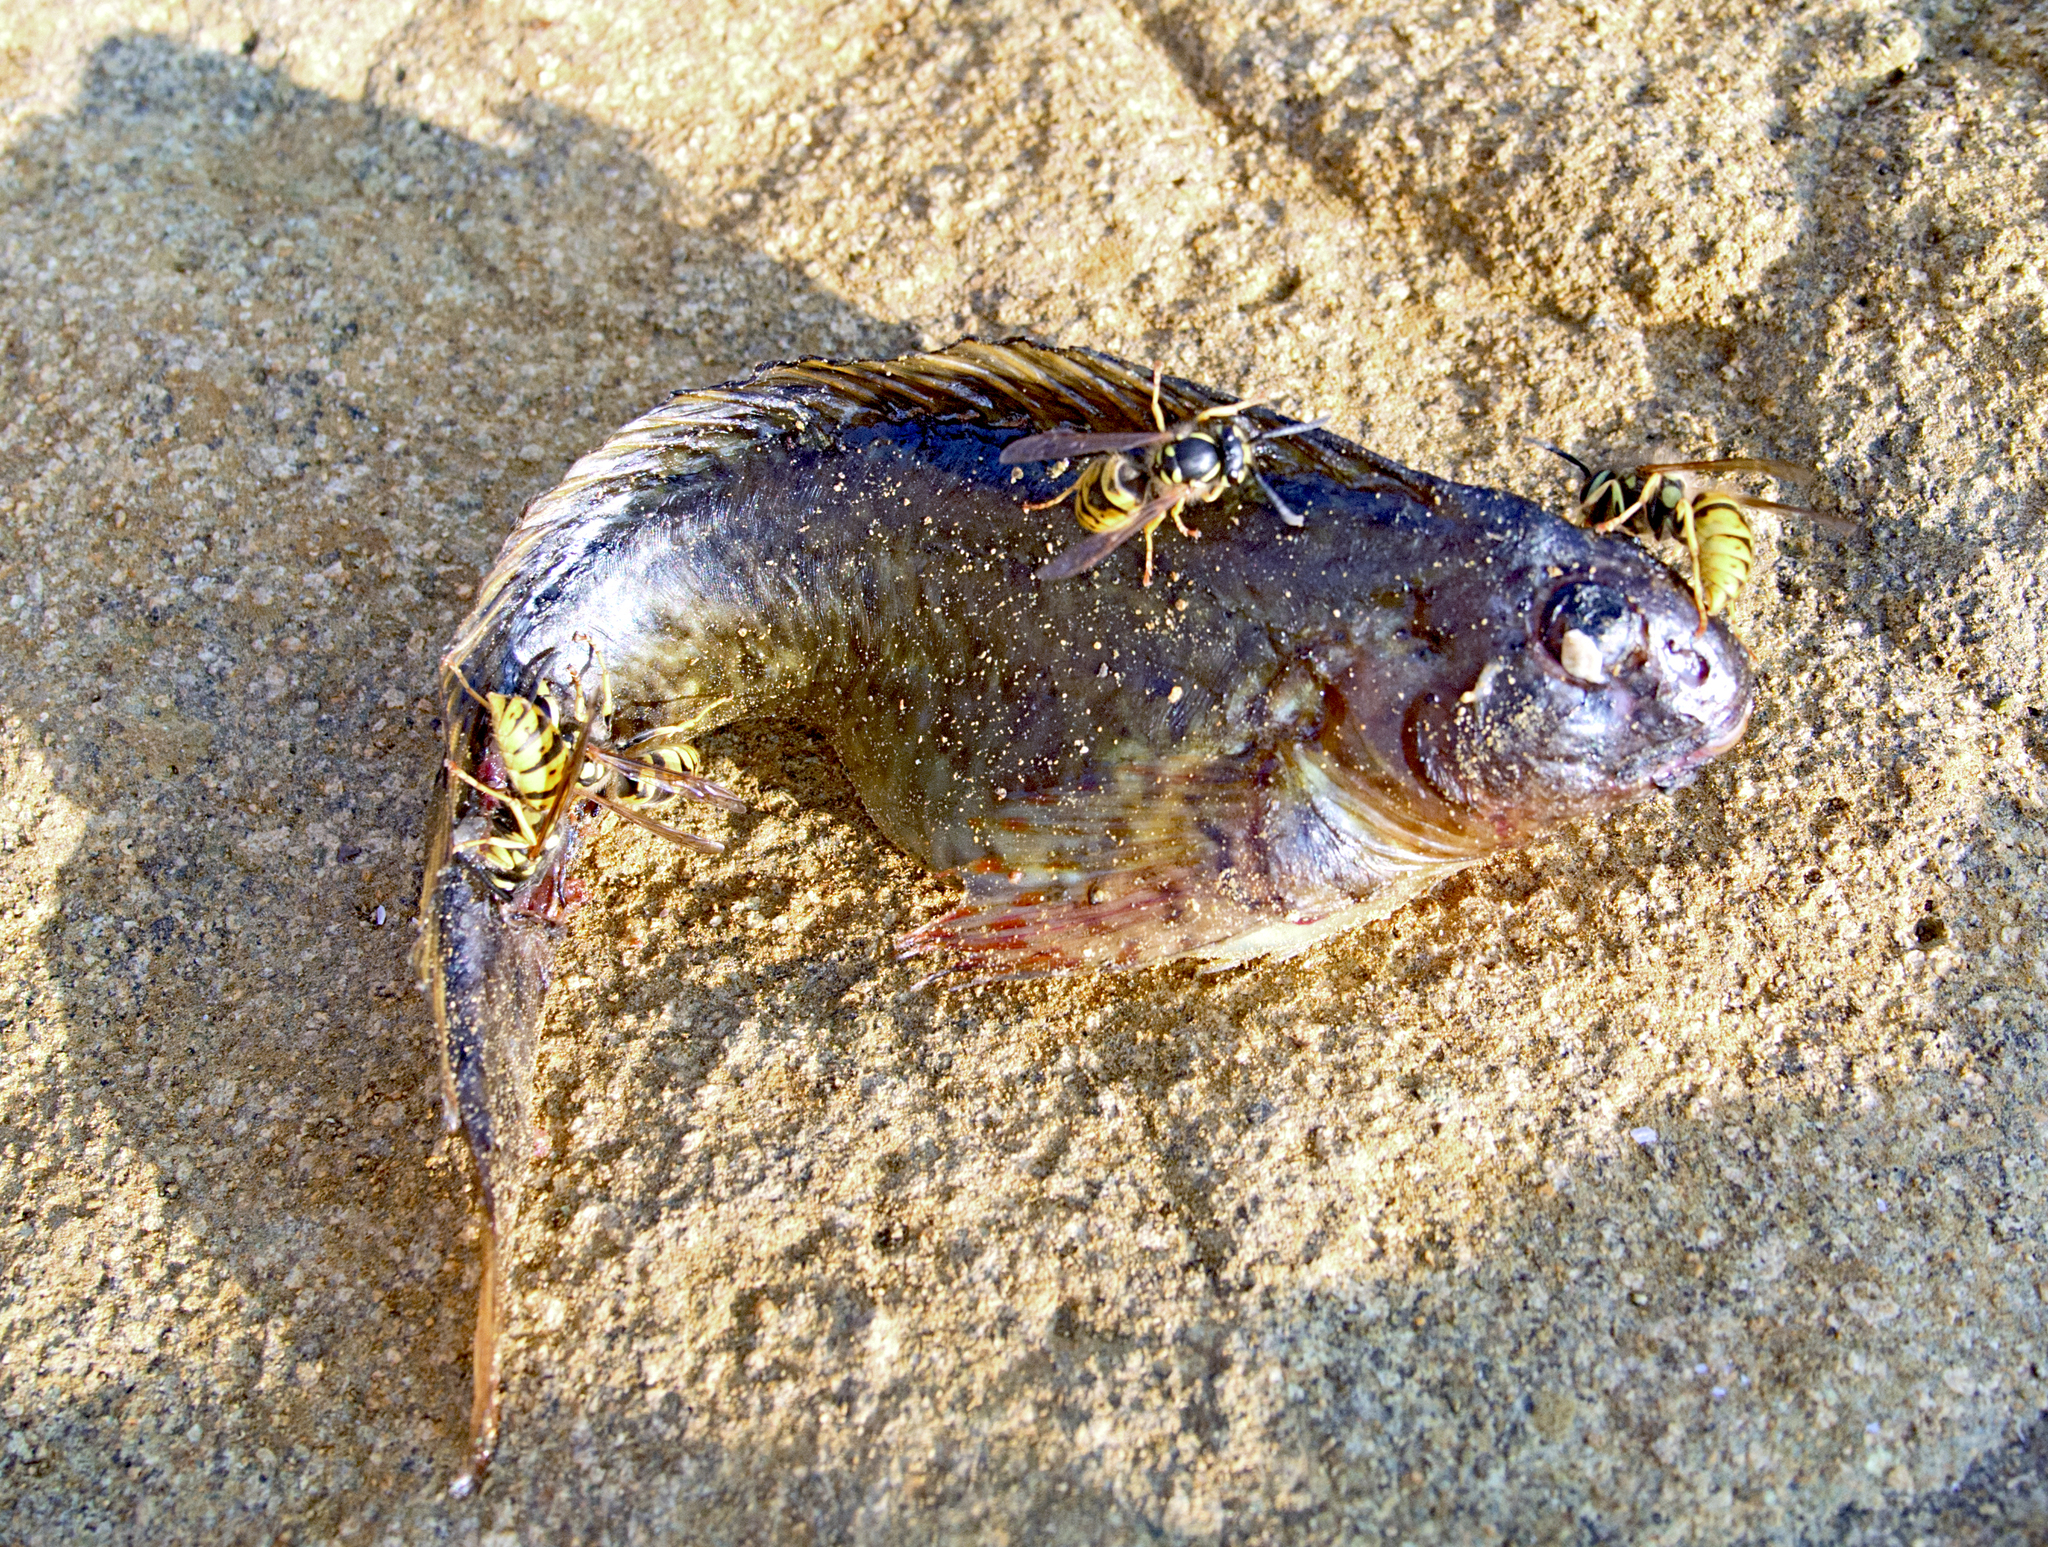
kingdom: Animalia
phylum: Chordata
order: Perciformes
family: Blenniidae
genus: Parablennius
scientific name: Parablennius sanguinolentus
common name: Black sea blenny
